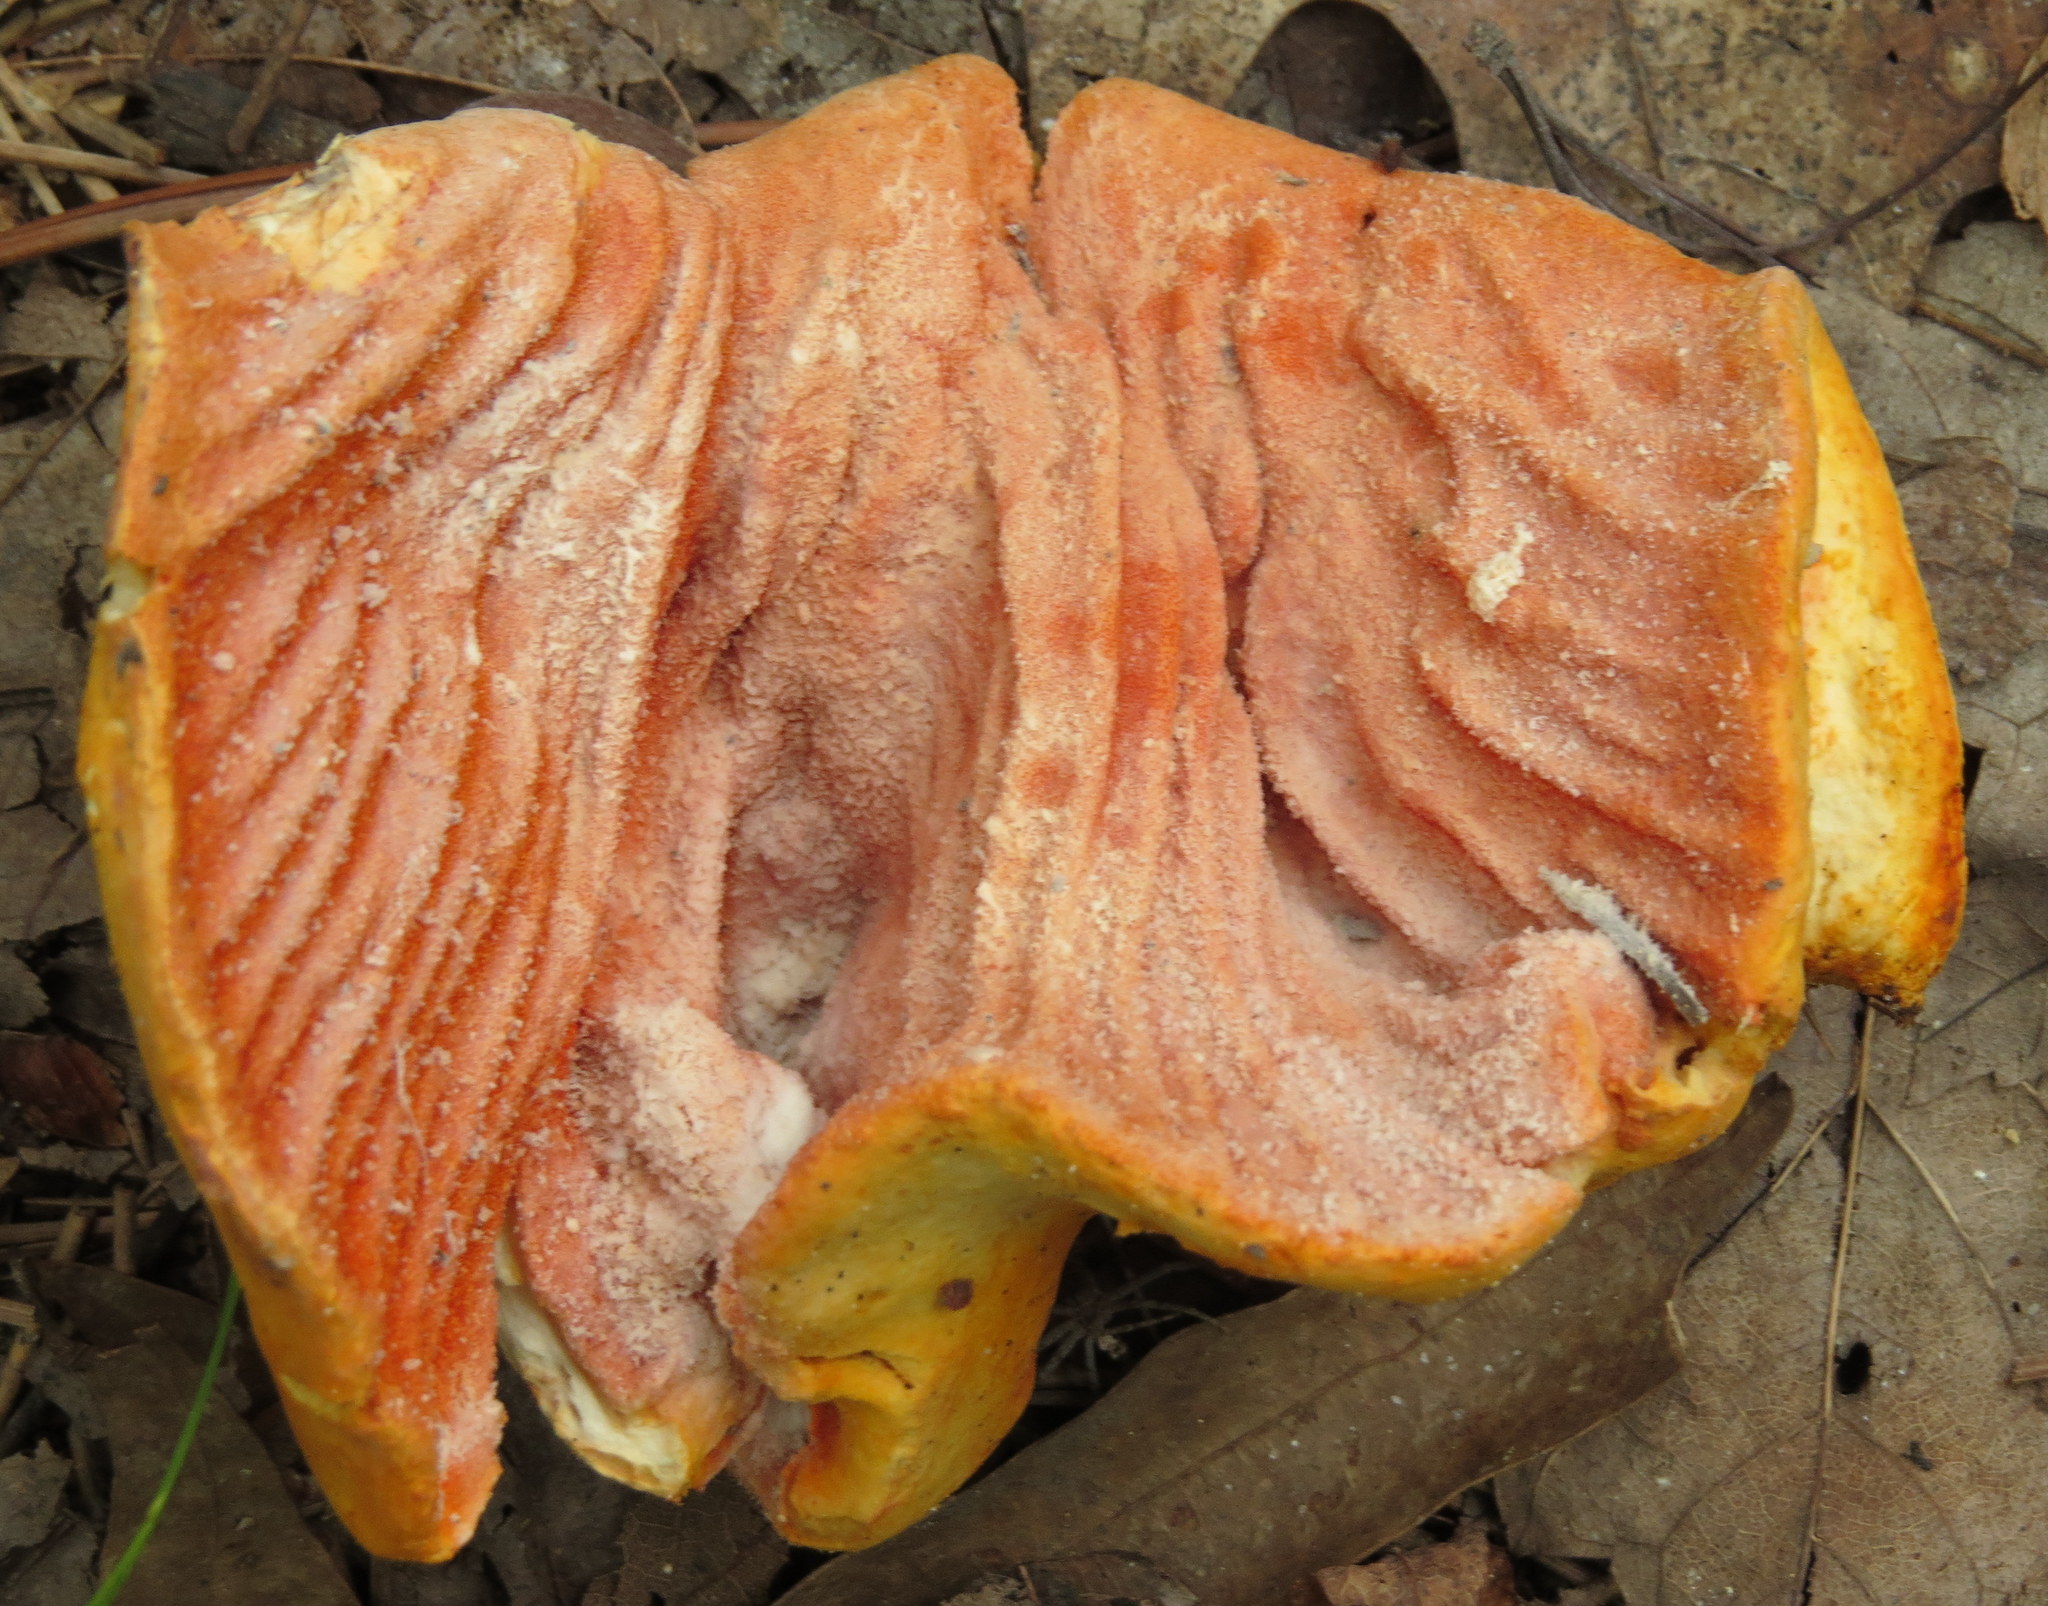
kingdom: Fungi
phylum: Ascomycota
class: Sordariomycetes
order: Hypocreales
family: Hypocreaceae
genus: Hypomyces
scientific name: Hypomyces lactifluorum
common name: Lobster mushroom
